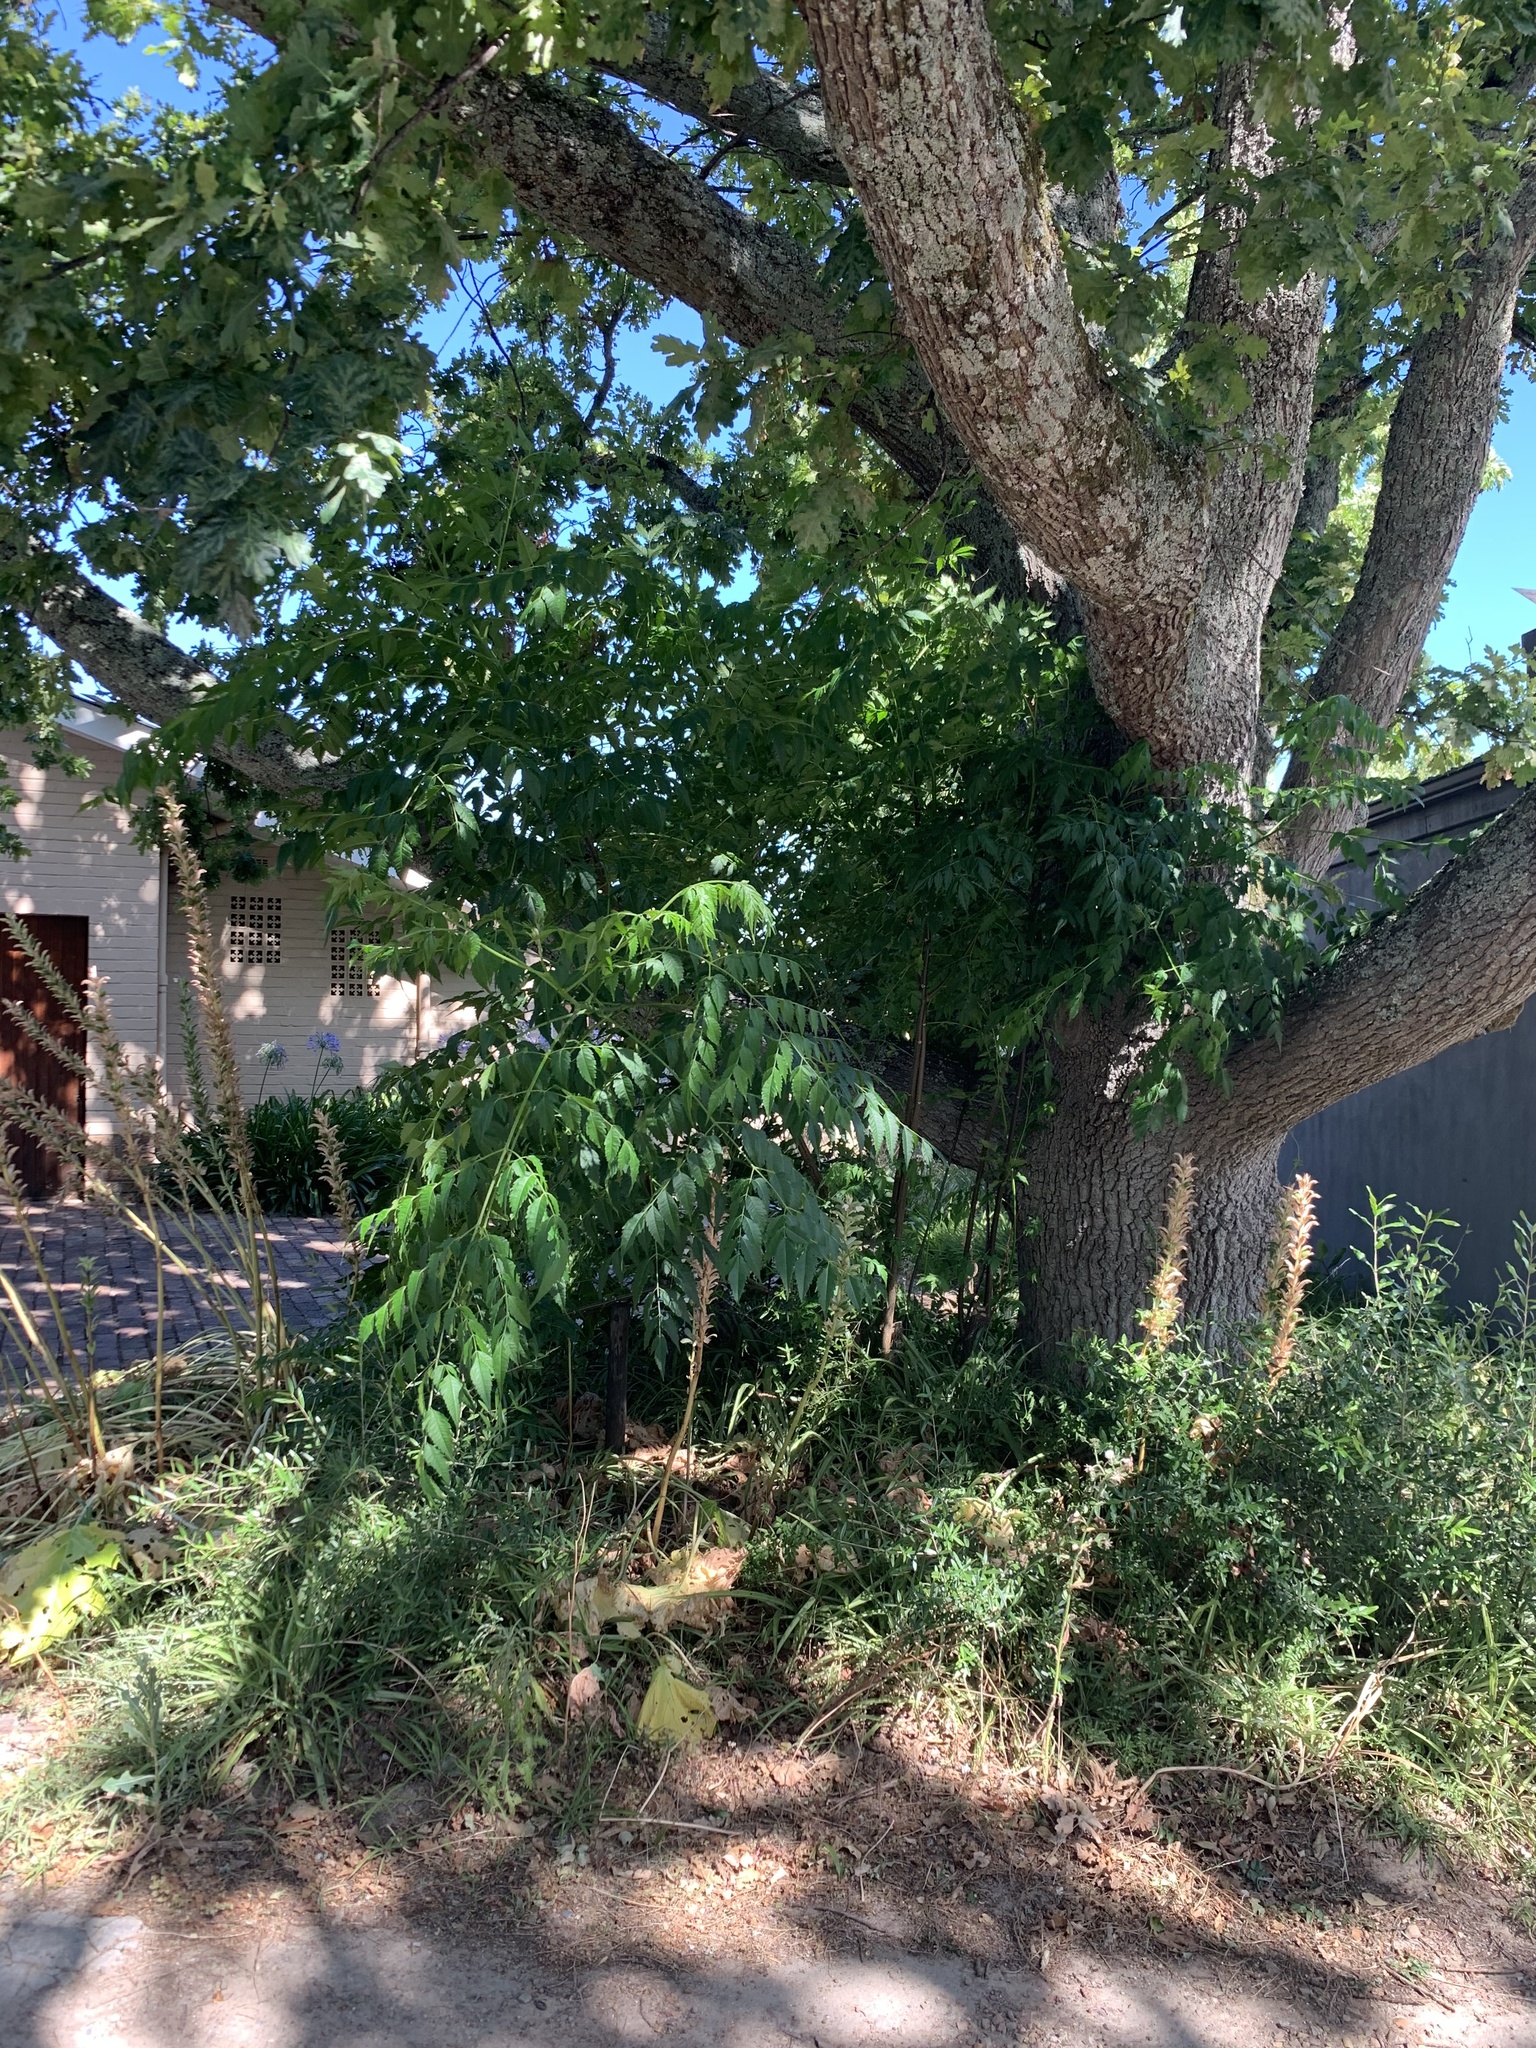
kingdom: Plantae
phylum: Tracheophyta
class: Magnoliopsida
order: Sapindales
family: Meliaceae
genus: Melia
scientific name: Melia azedarach
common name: Chinaberrytree
